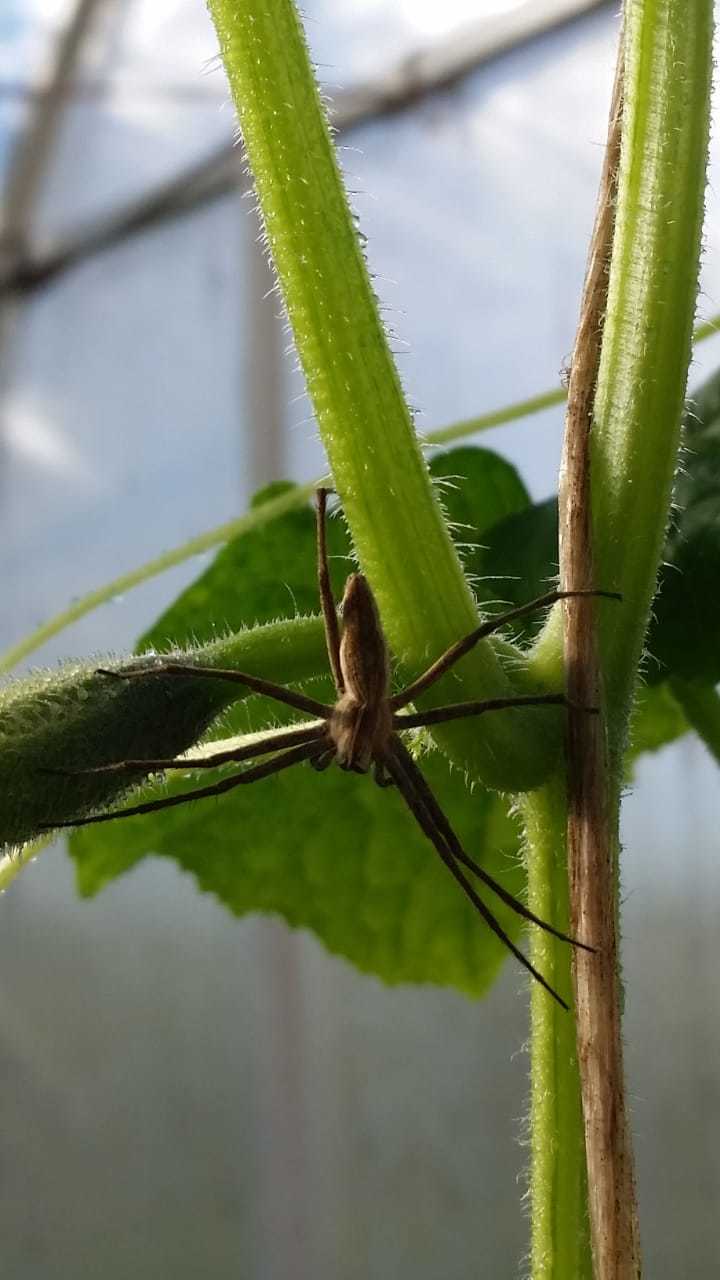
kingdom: Animalia
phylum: Arthropoda
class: Arachnida
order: Araneae
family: Pisauridae
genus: Pisaura
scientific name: Pisaura mirabilis
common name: Tent spider
